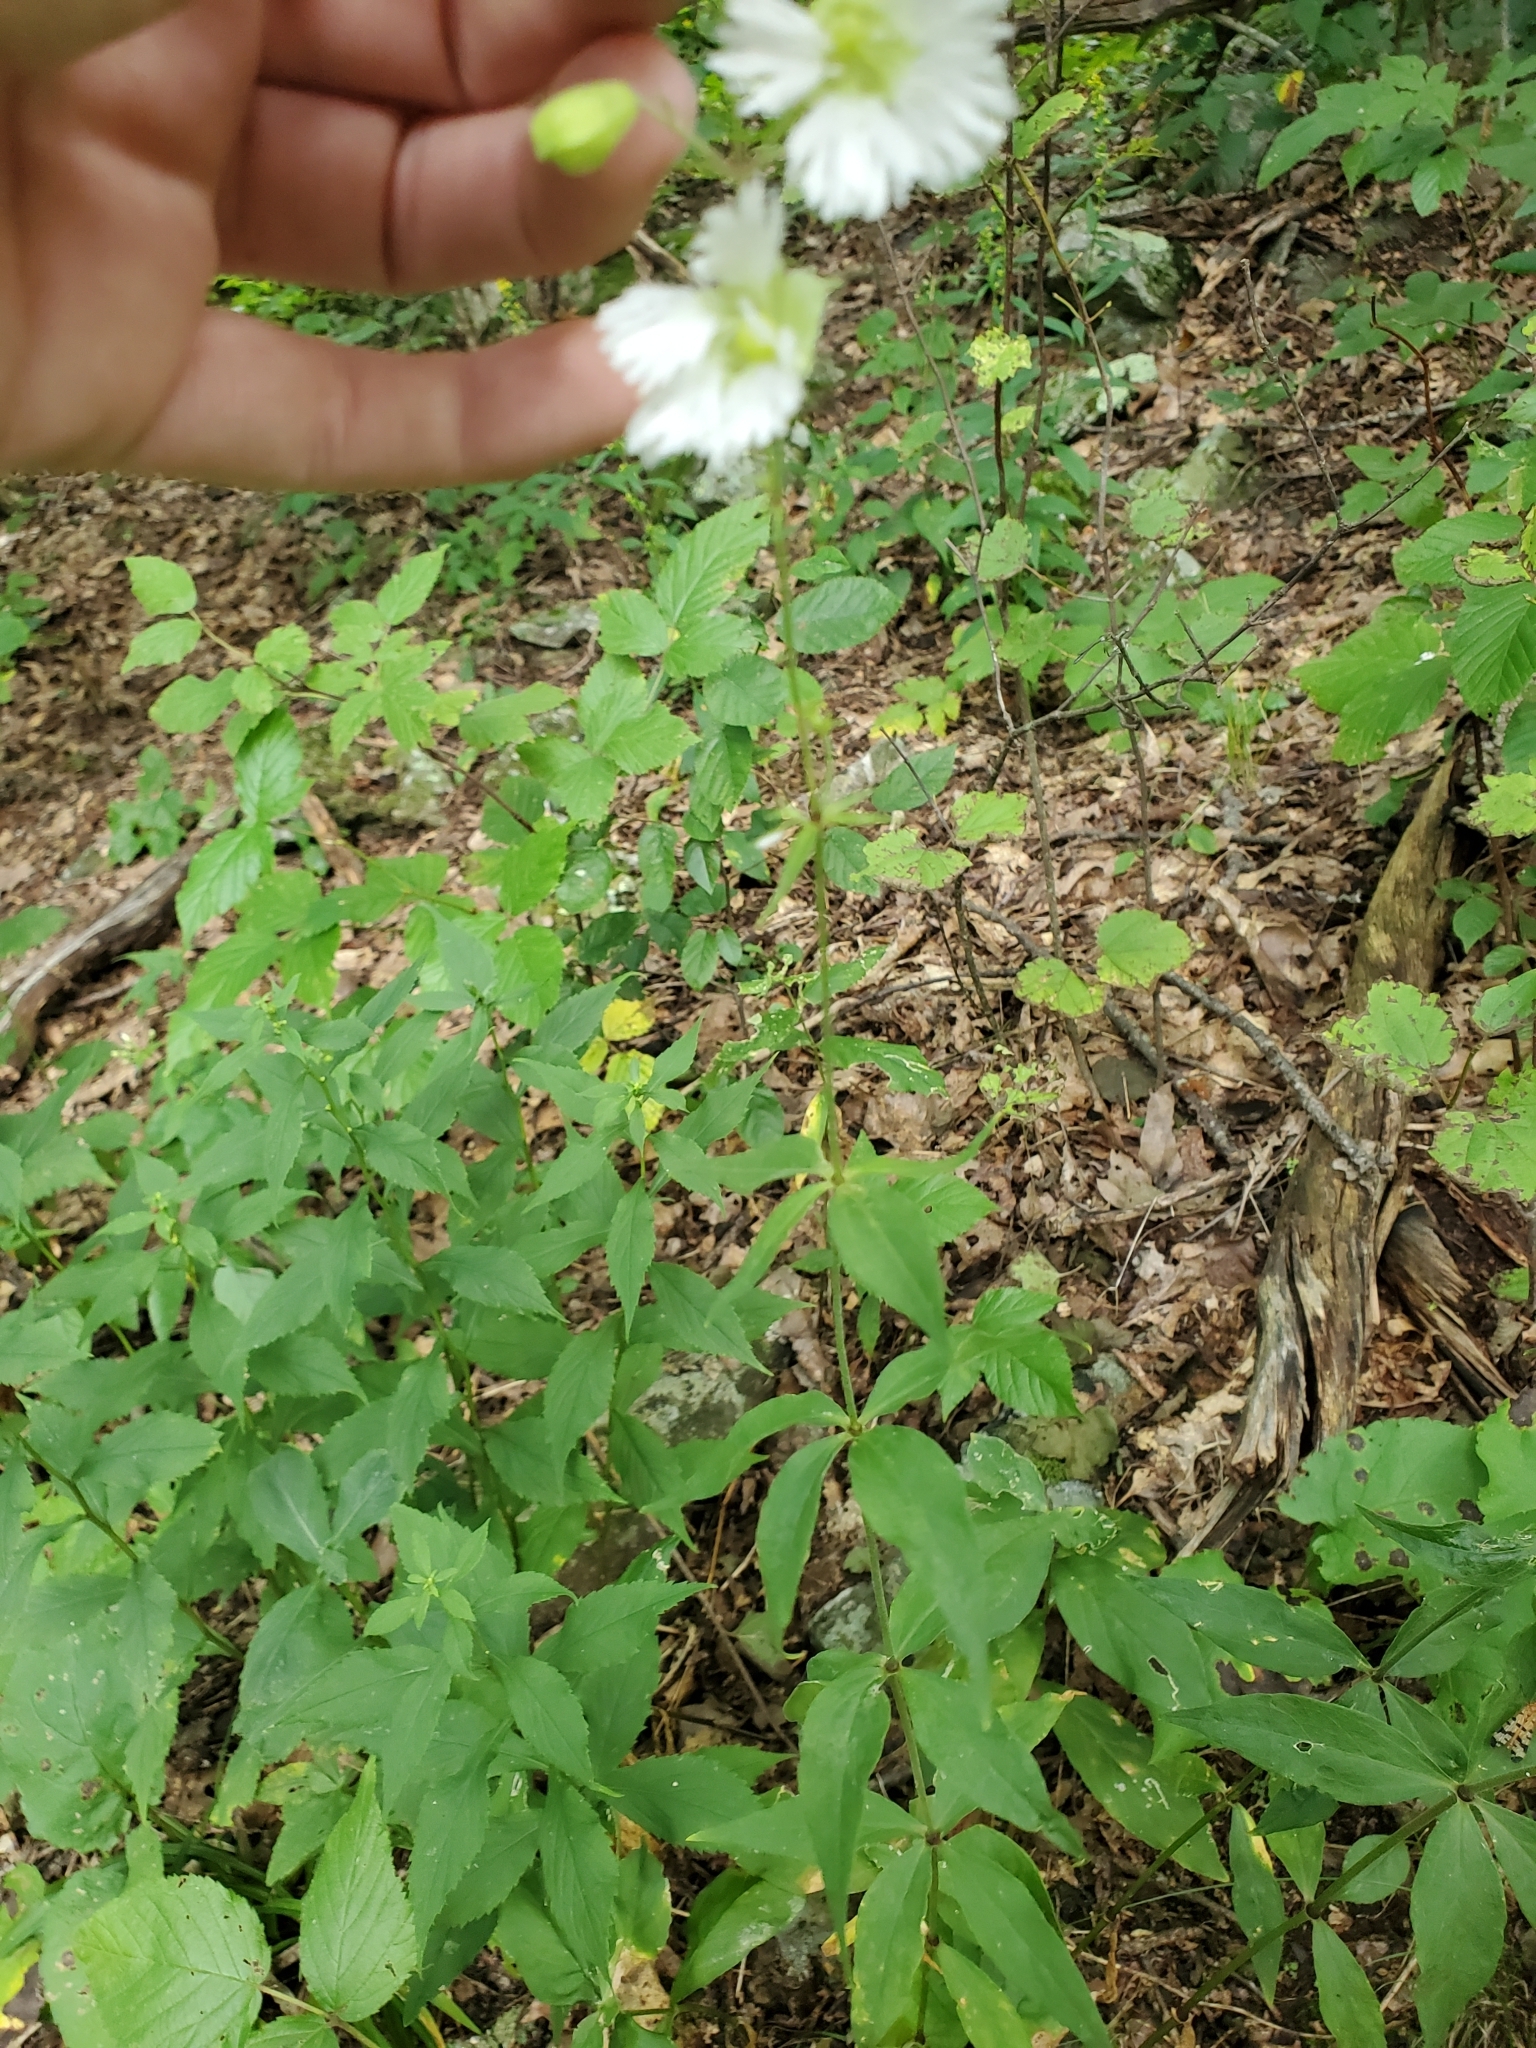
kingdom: Plantae
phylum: Tracheophyta
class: Magnoliopsida
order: Caryophyllales
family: Caryophyllaceae
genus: Silene
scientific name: Silene stellata
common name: Starry campion
